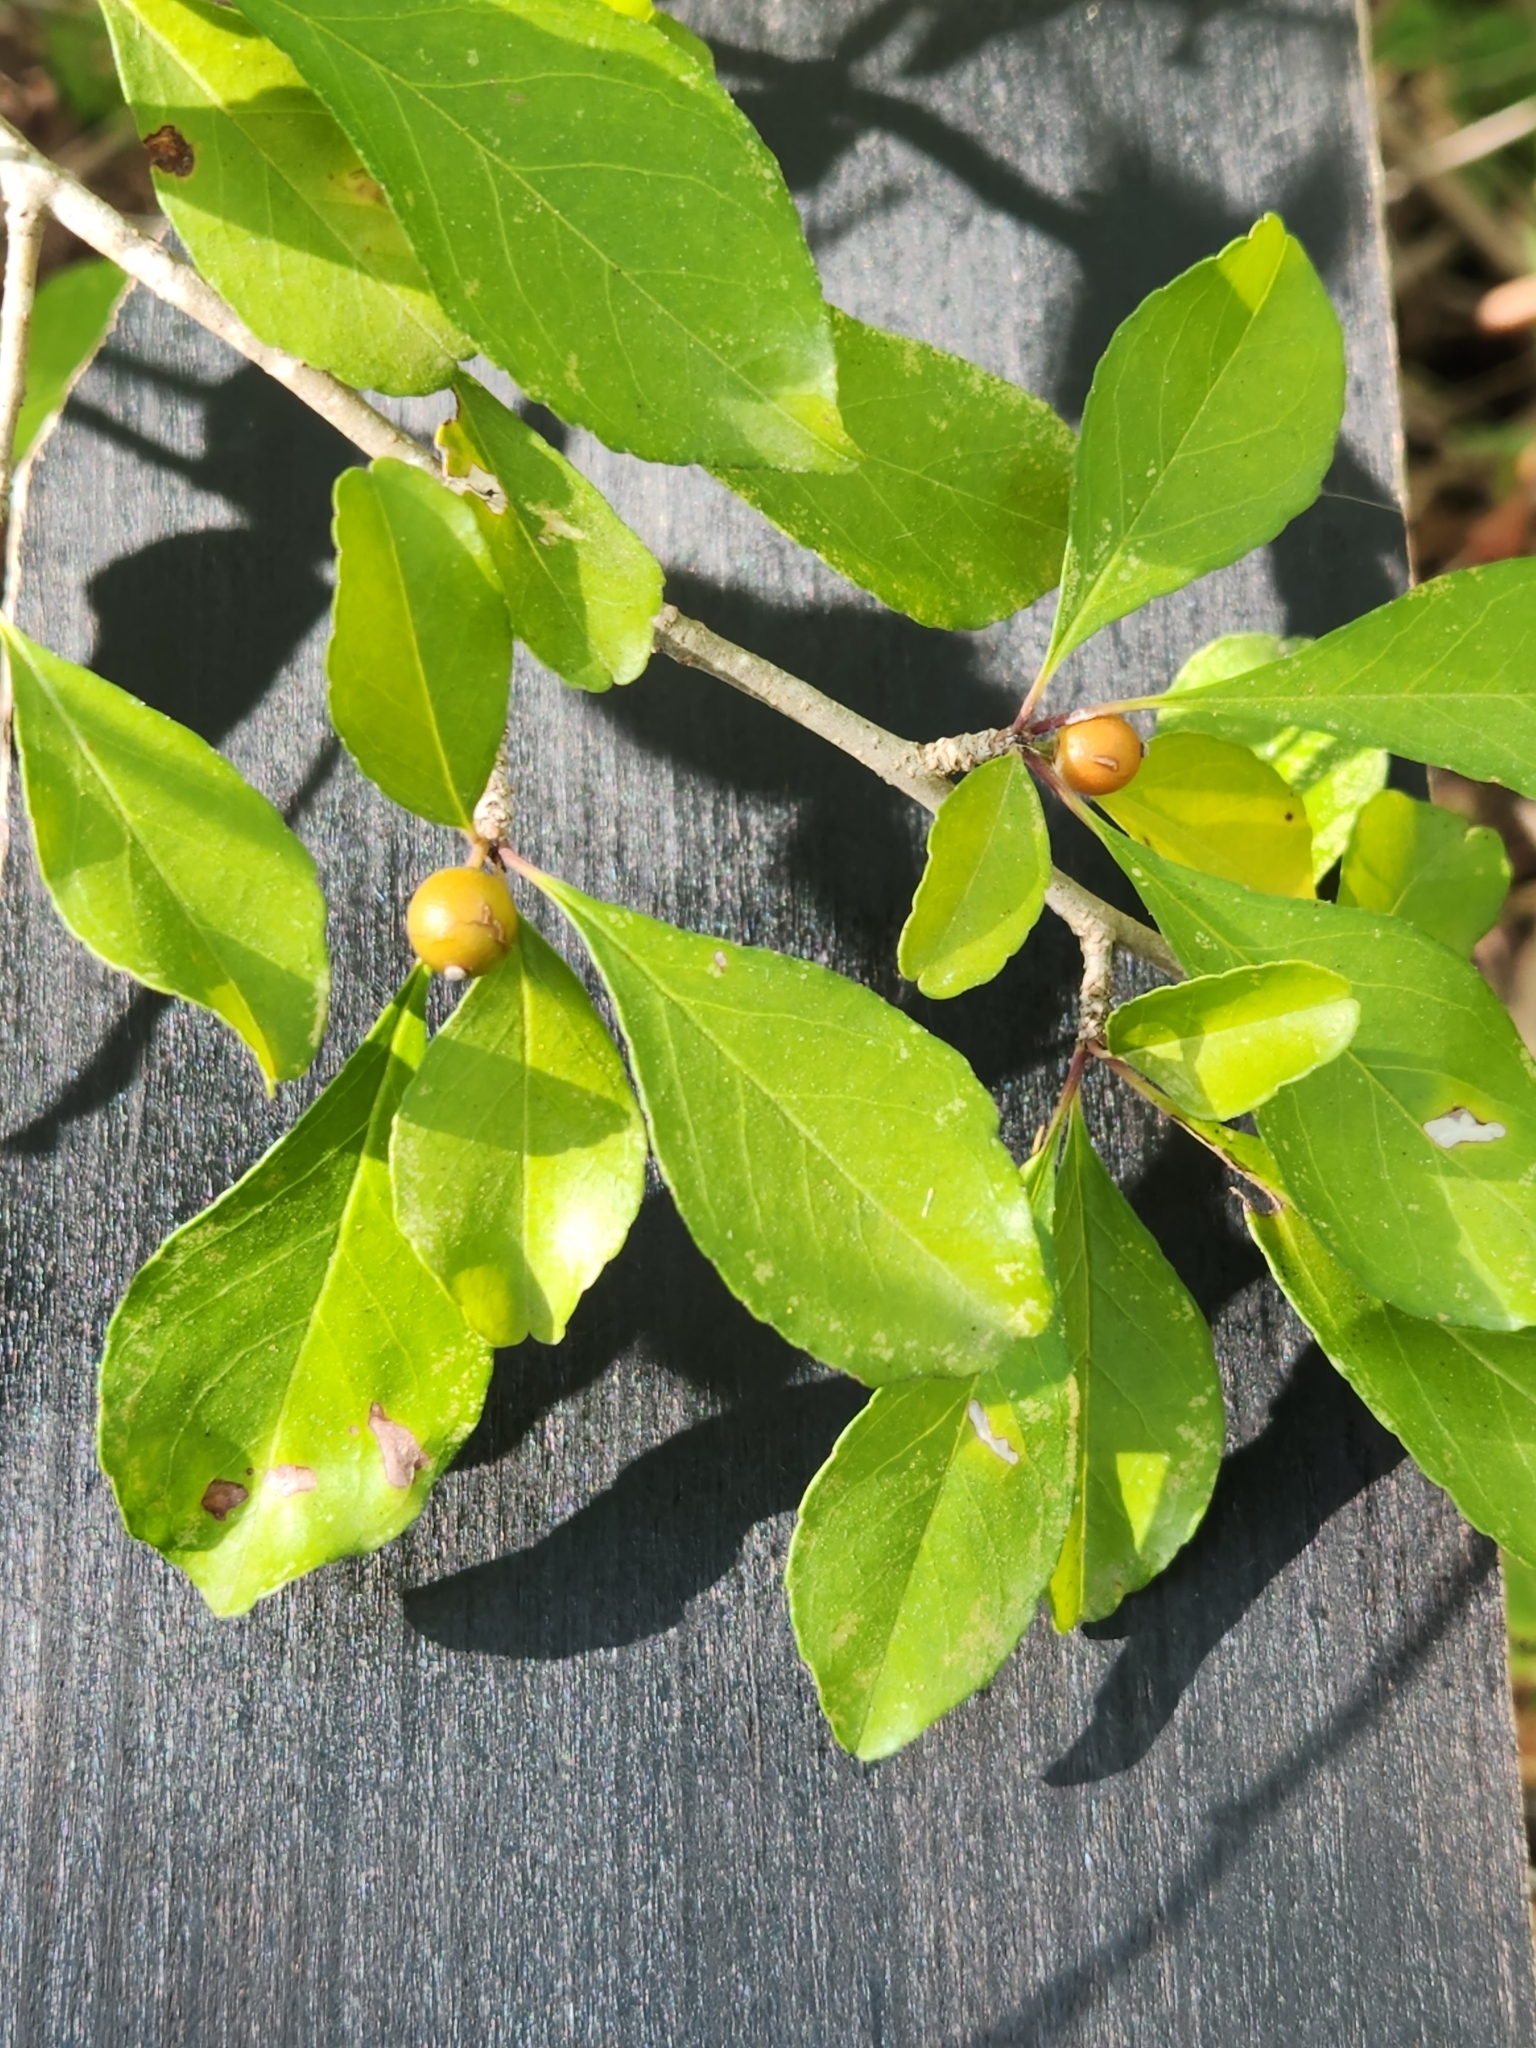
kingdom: Plantae
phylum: Tracheophyta
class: Magnoliopsida
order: Aquifoliales
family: Aquifoliaceae
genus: Ilex
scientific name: Ilex decidua
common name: Possum-haw
